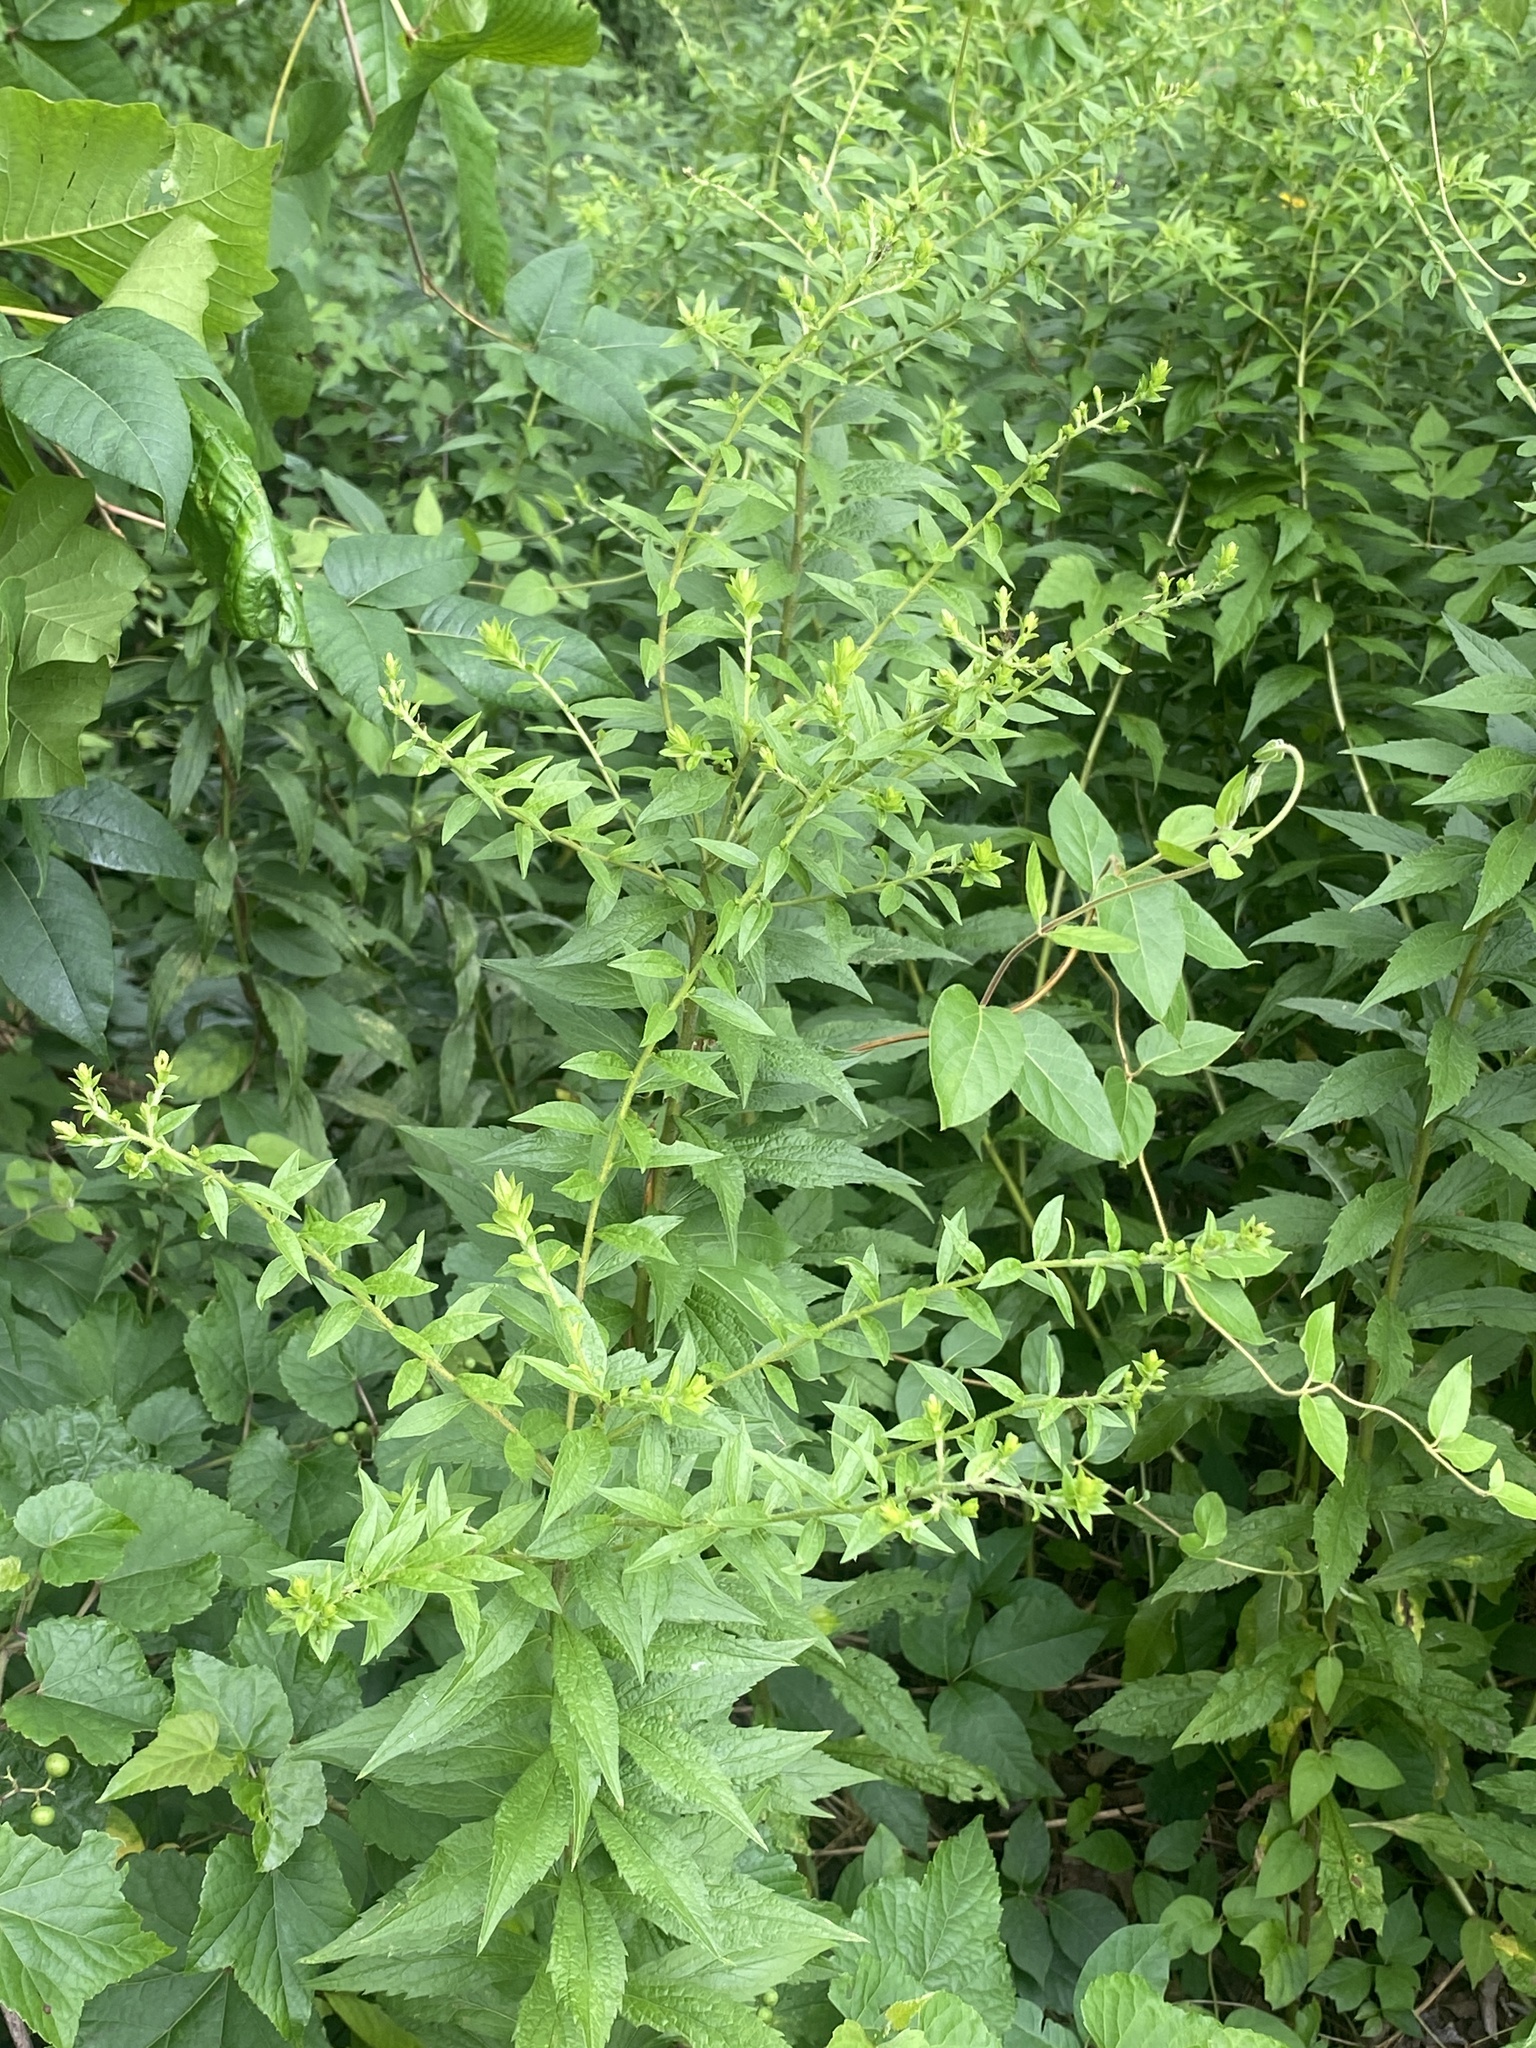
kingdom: Plantae
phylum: Tracheophyta
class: Magnoliopsida
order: Asterales
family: Asteraceae
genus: Solidago
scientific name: Solidago rugosa
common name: Rough-stemmed goldenrod
